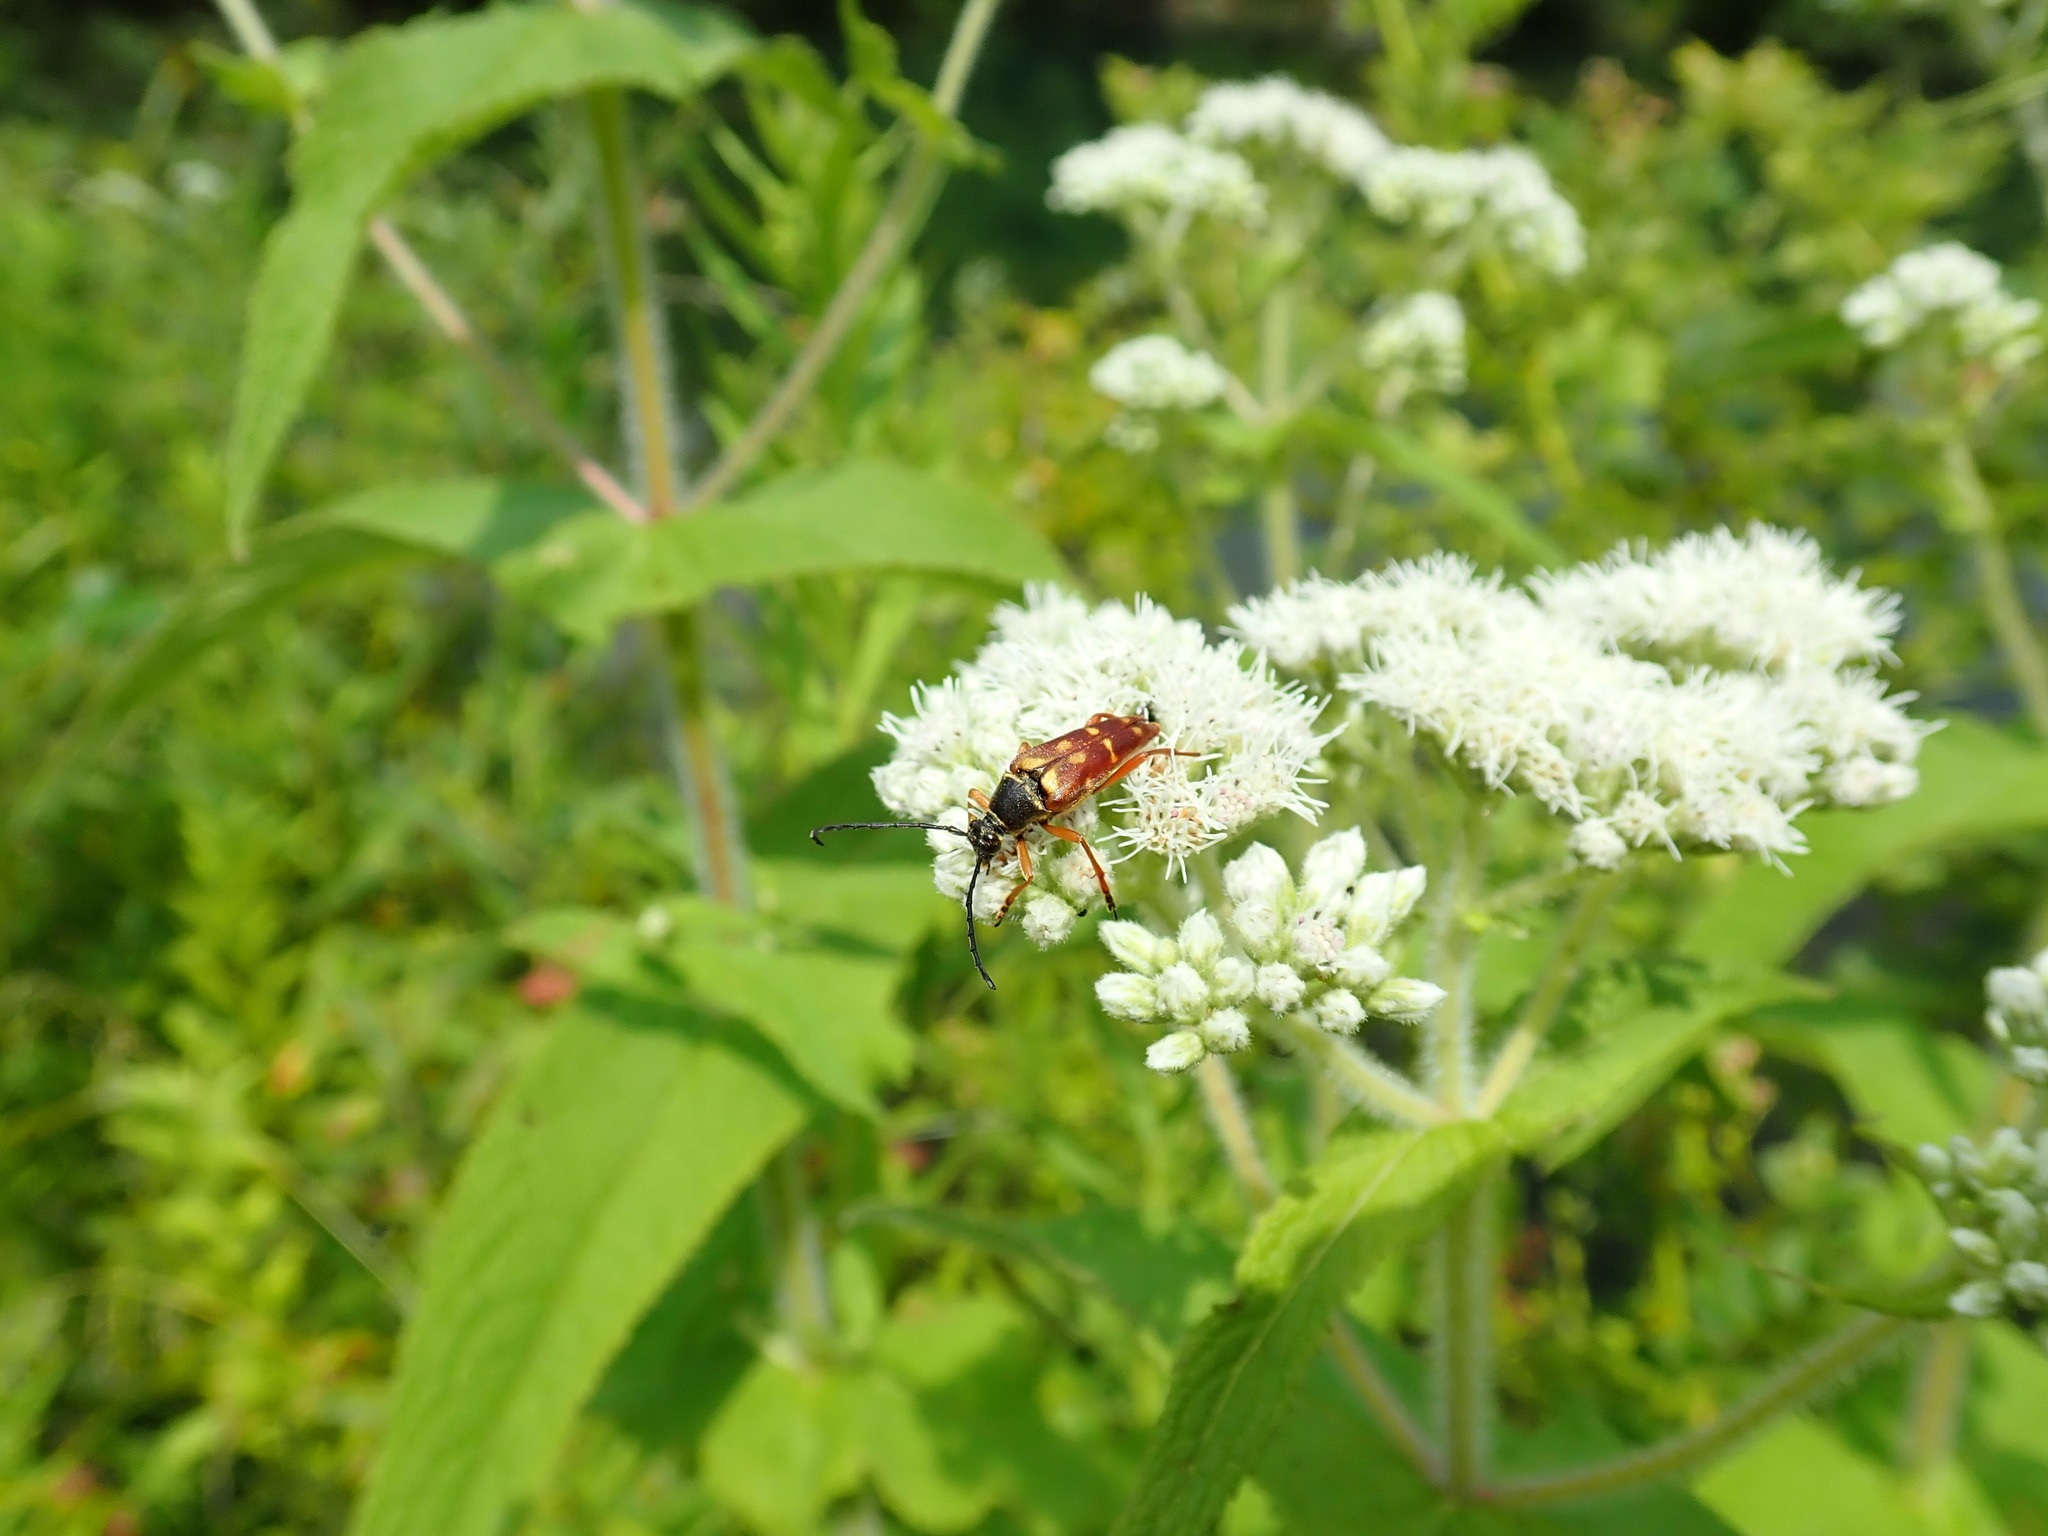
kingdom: Animalia
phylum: Arthropoda
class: Insecta
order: Coleoptera
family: Cerambycidae
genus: Typocerus
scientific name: Typocerus velutinus
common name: Banded longhorn beetle
